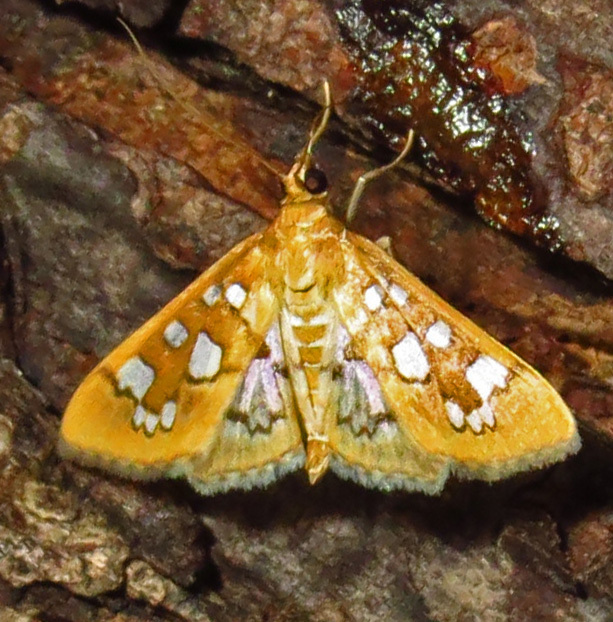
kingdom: Animalia
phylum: Arthropoda
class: Insecta
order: Lepidoptera
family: Crambidae
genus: Samea
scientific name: Samea baccatalis
